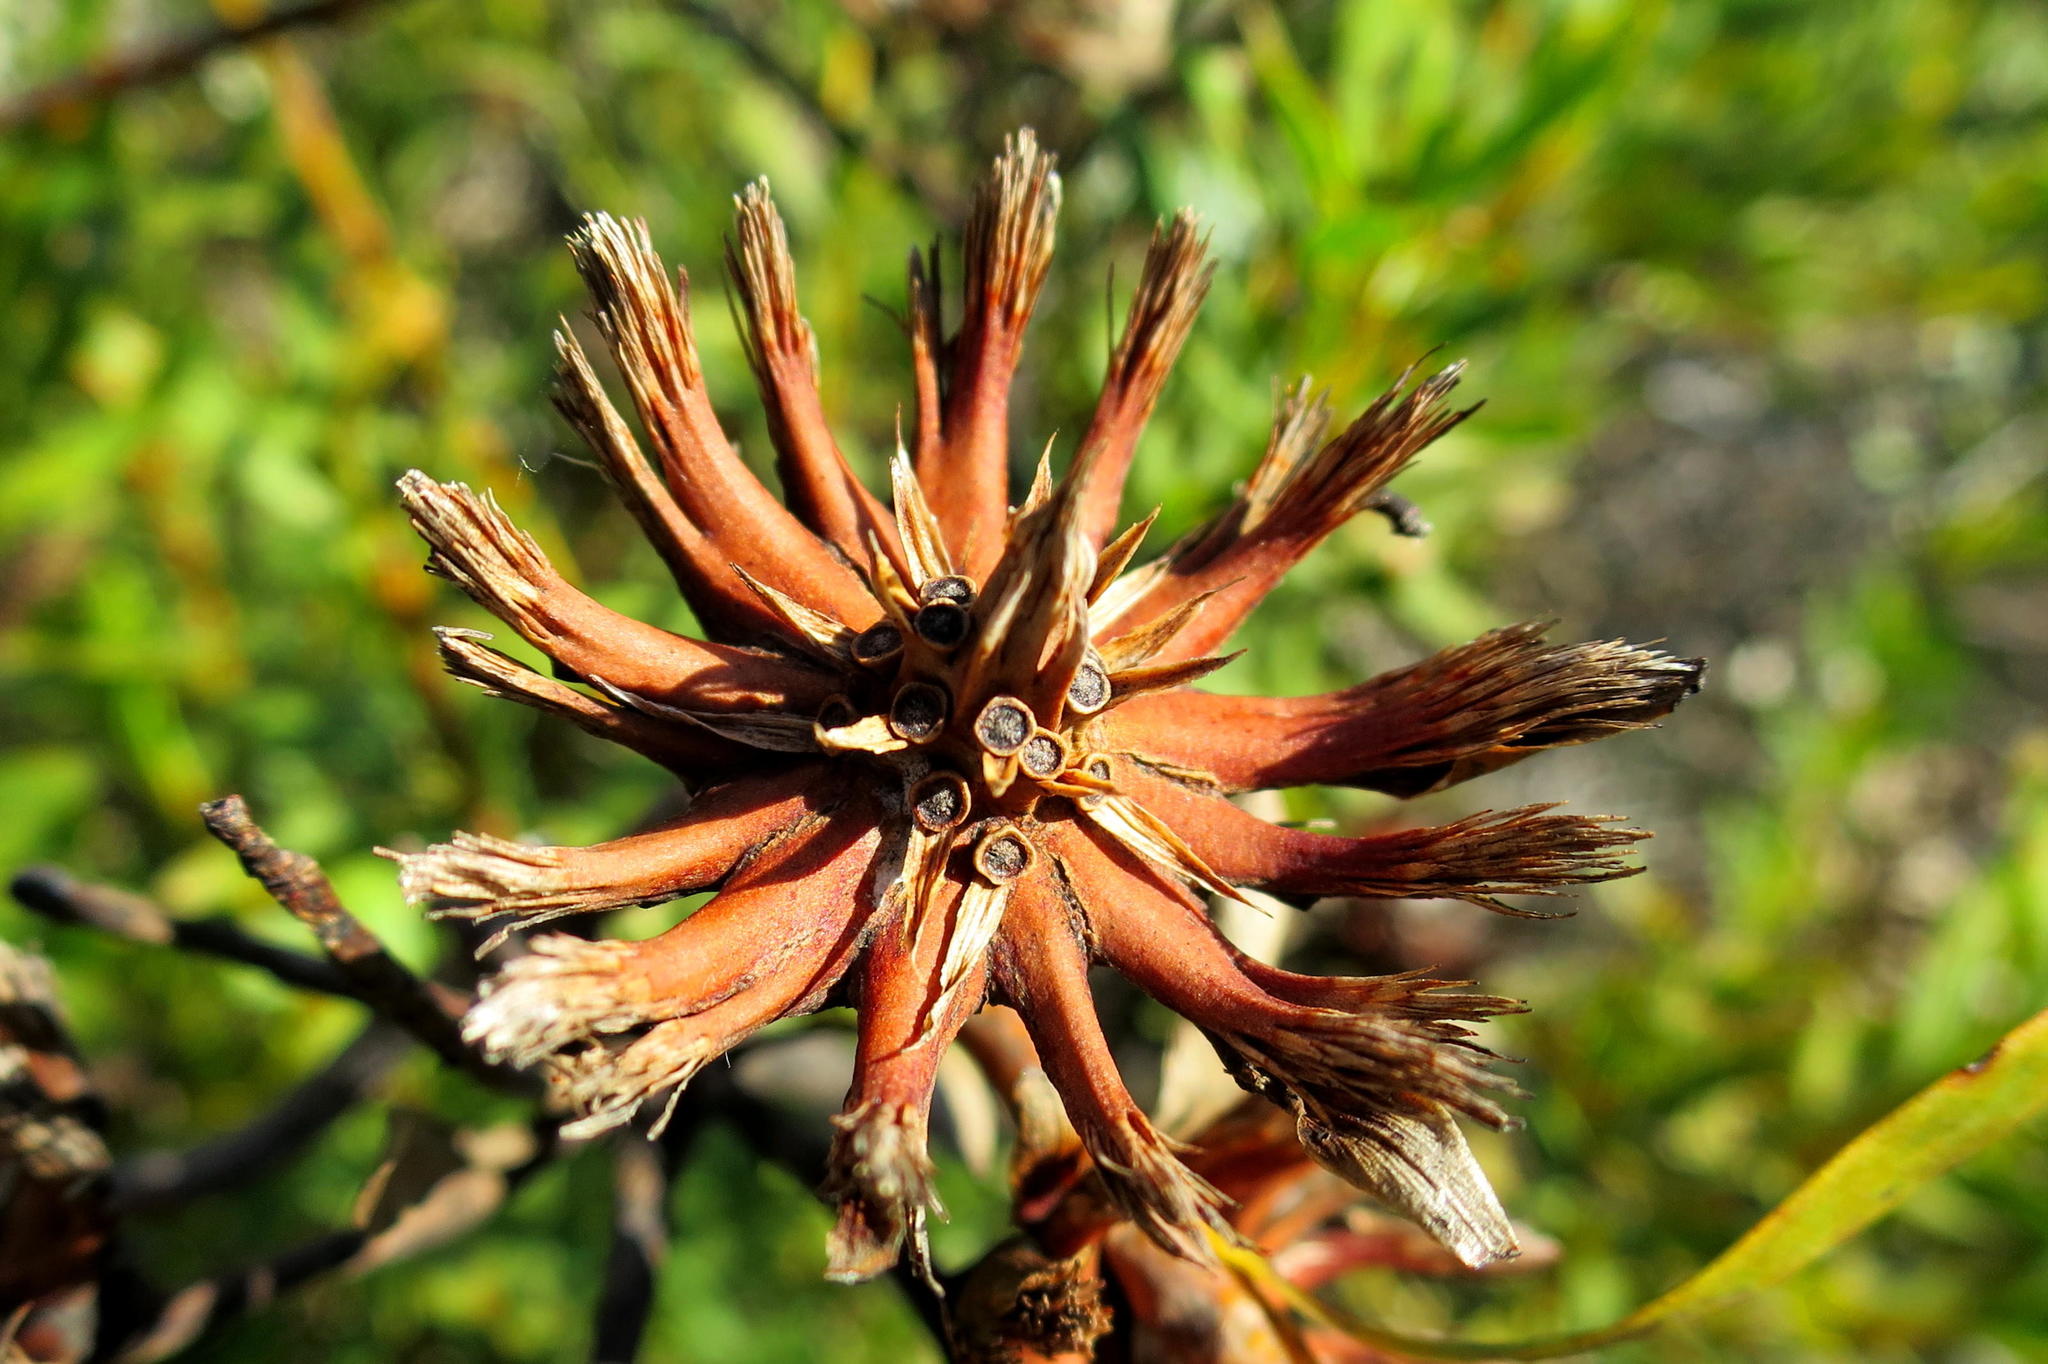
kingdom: Plantae
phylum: Tracheophyta
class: Magnoliopsida
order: Proteales
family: Proteaceae
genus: Aulax
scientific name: Aulax umbellata
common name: Broad-leaf featherbush
